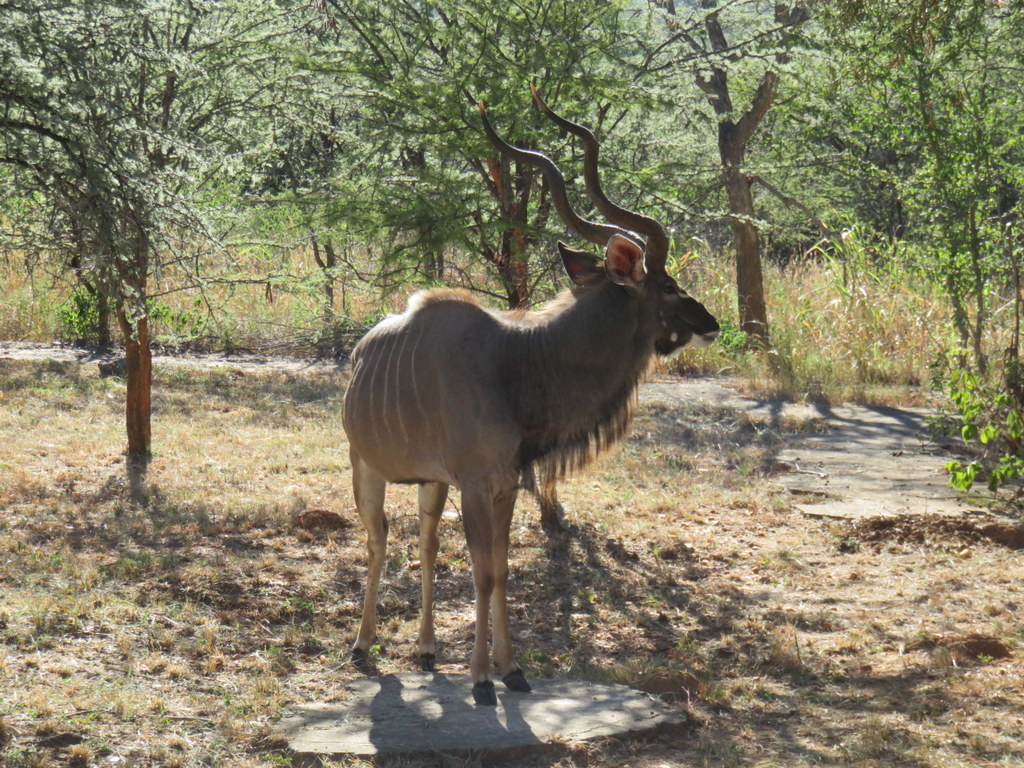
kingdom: Animalia
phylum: Chordata
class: Mammalia
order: Artiodactyla
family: Bovidae
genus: Tragelaphus
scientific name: Tragelaphus strepsiceros
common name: Greater kudu
